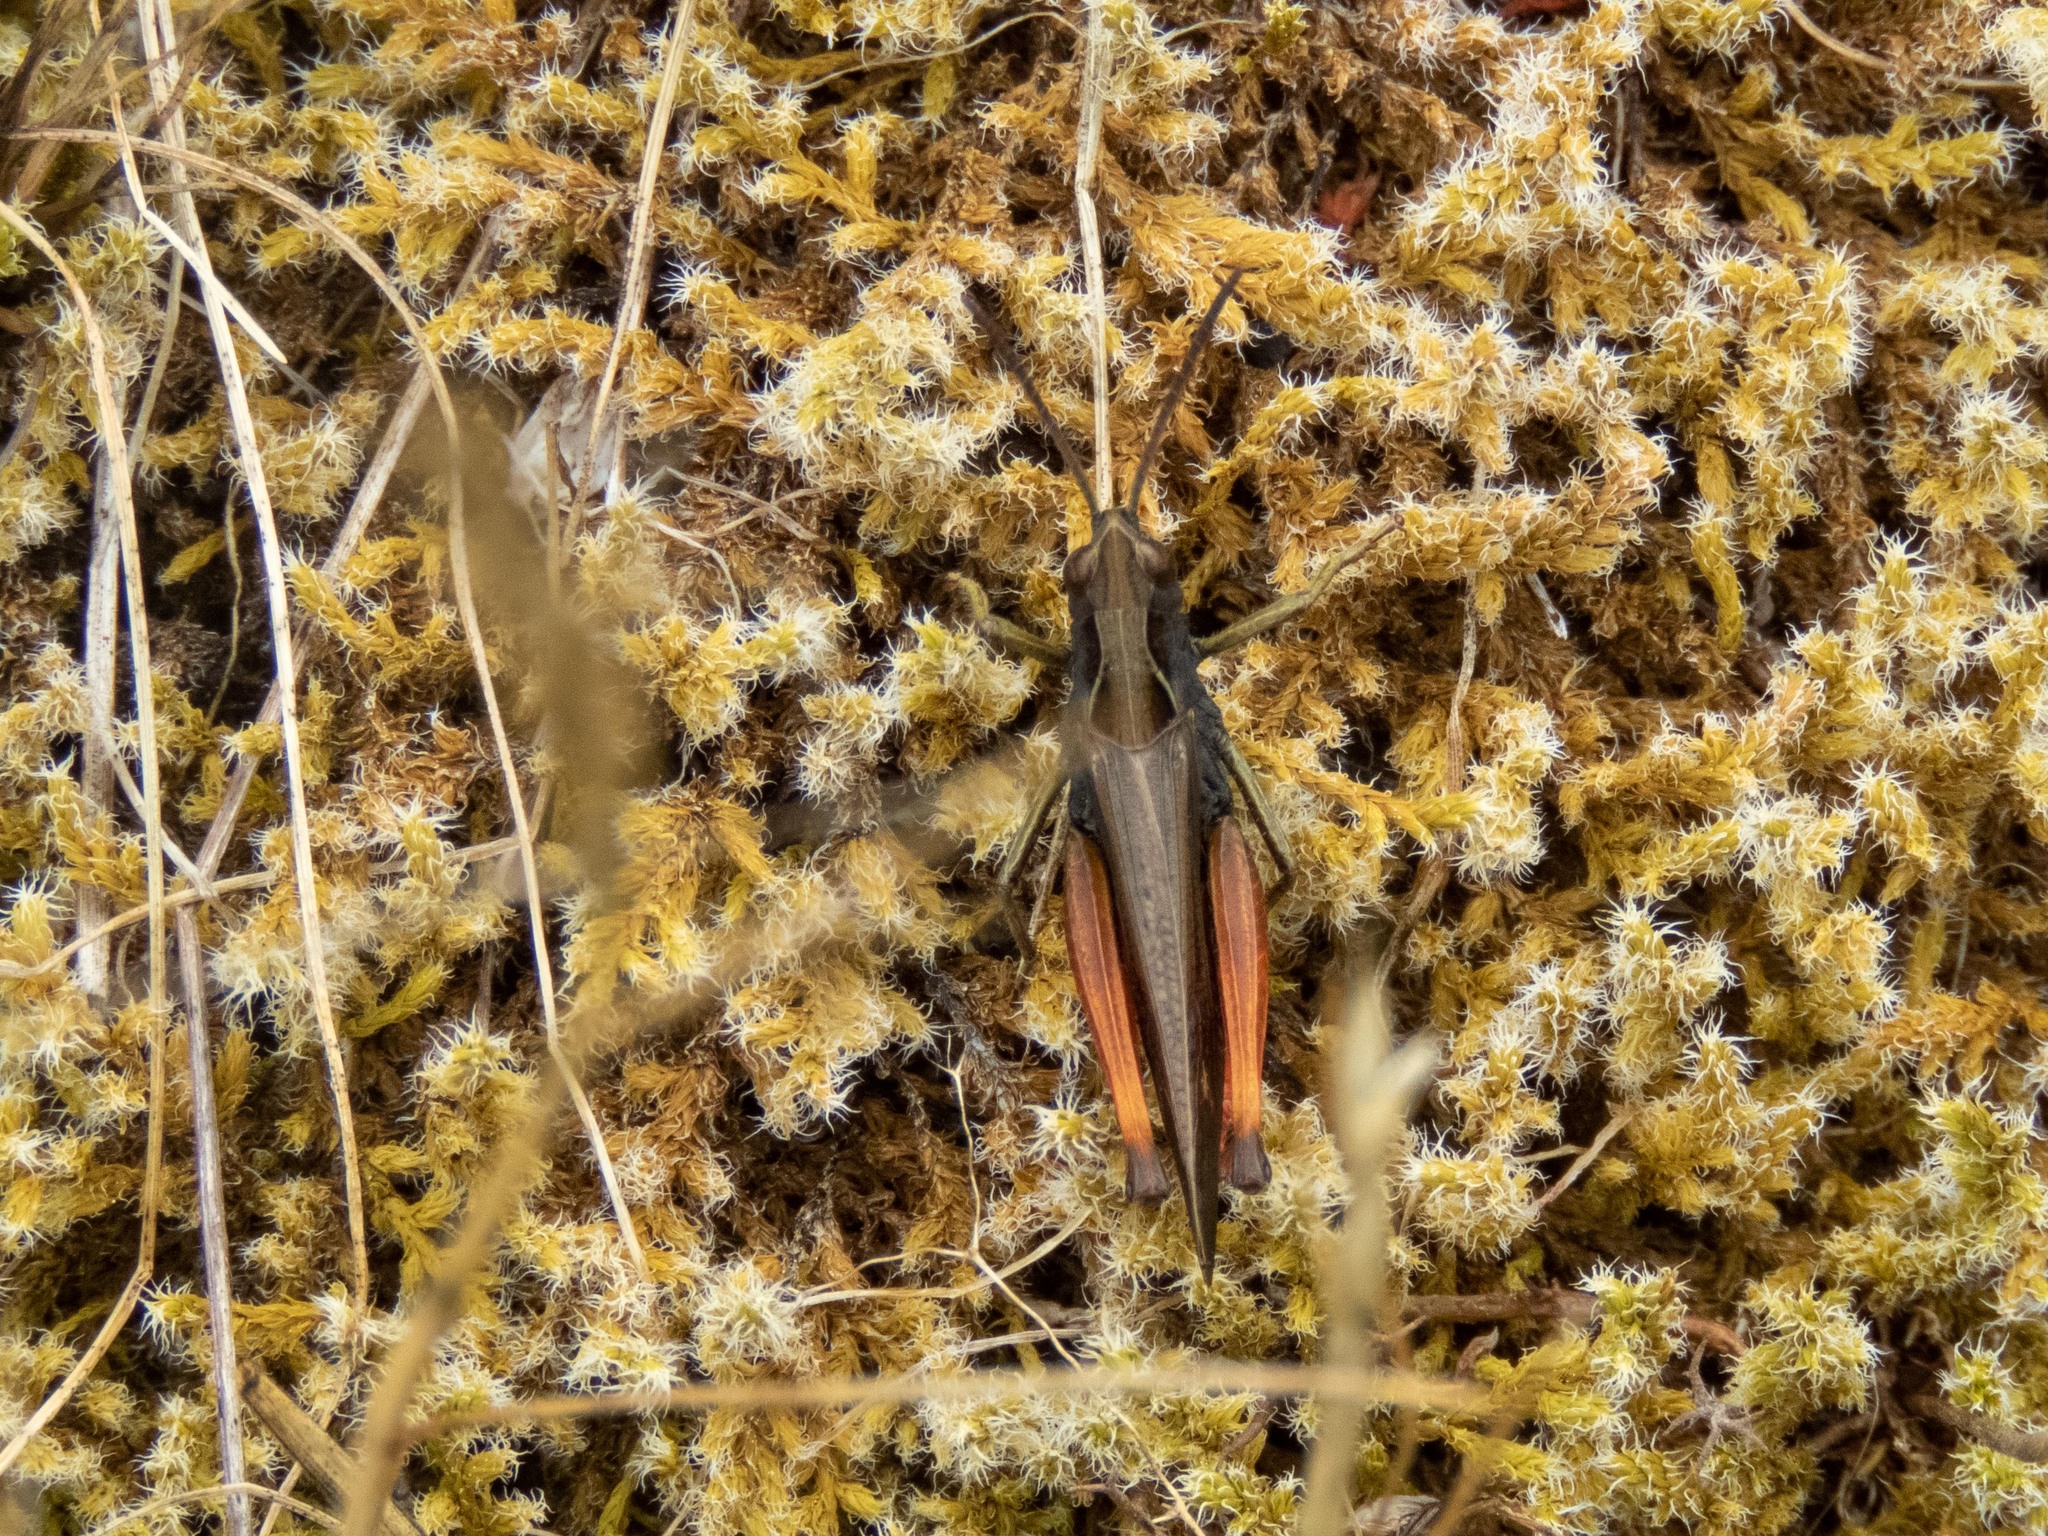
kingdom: Animalia
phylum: Arthropoda
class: Insecta
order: Orthoptera
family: Acrididae
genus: Omocestus
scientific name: Omocestus rufipes
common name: Woodland grasshopper
